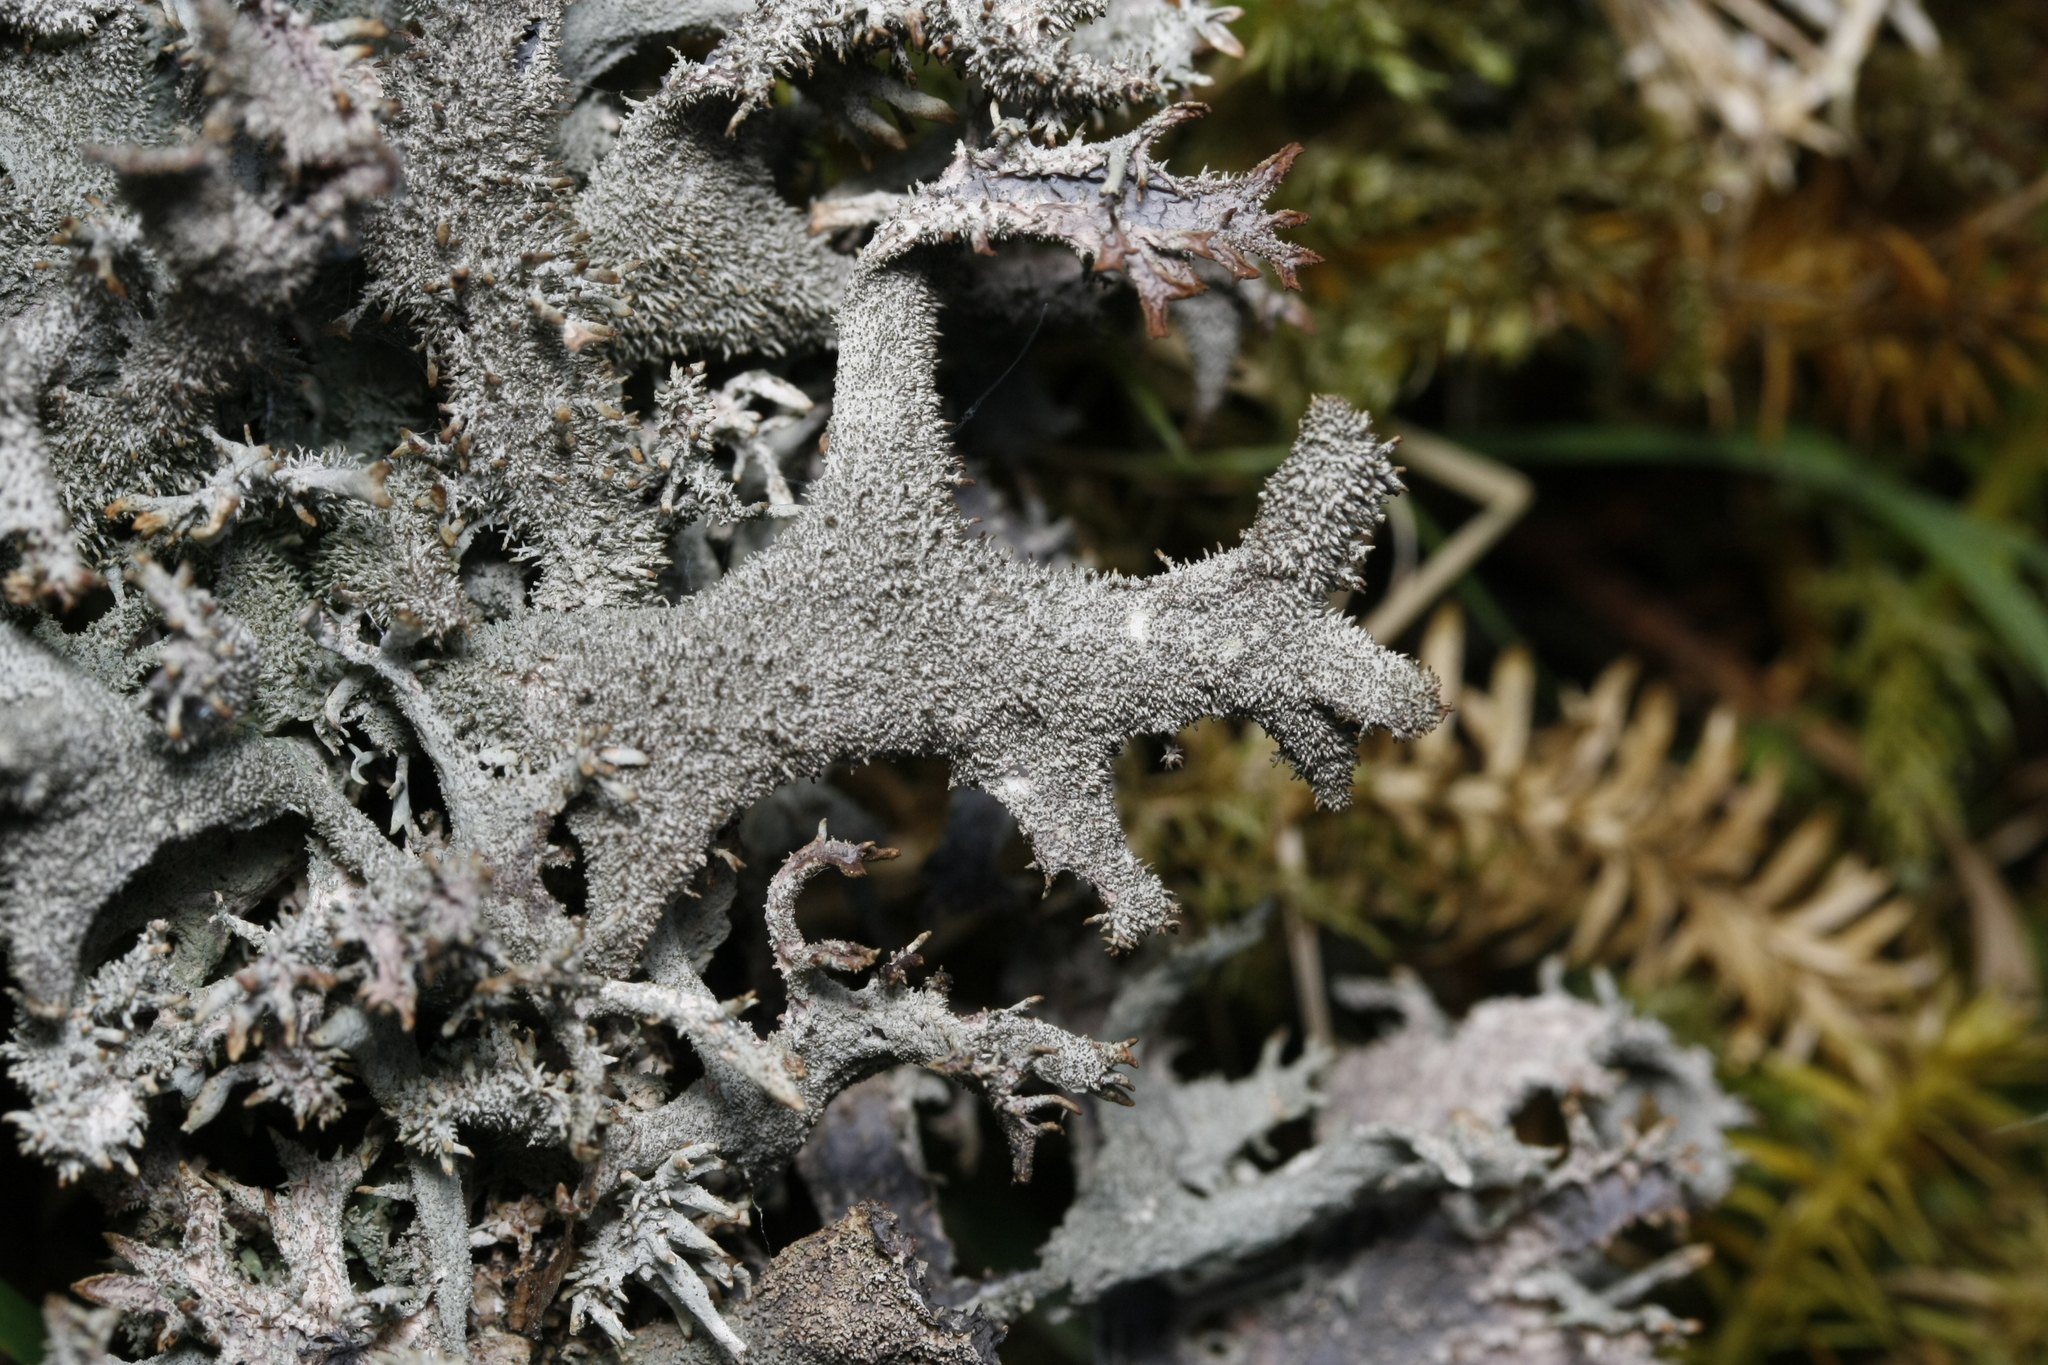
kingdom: Fungi
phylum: Ascomycota
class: Lecanoromycetes
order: Lecanorales
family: Parmeliaceae
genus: Pseudevernia
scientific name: Pseudevernia furfuracea
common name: Tree moss
